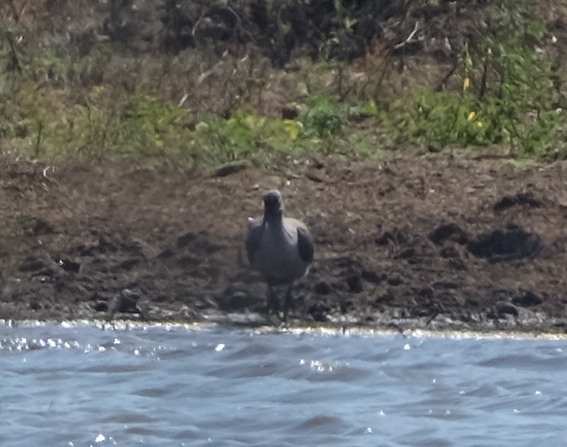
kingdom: Animalia
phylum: Chordata
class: Aves
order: Pelecaniformes
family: Threskiornithidae
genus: Bostrychia
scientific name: Bostrychia hagedash
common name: Hadada ibis
